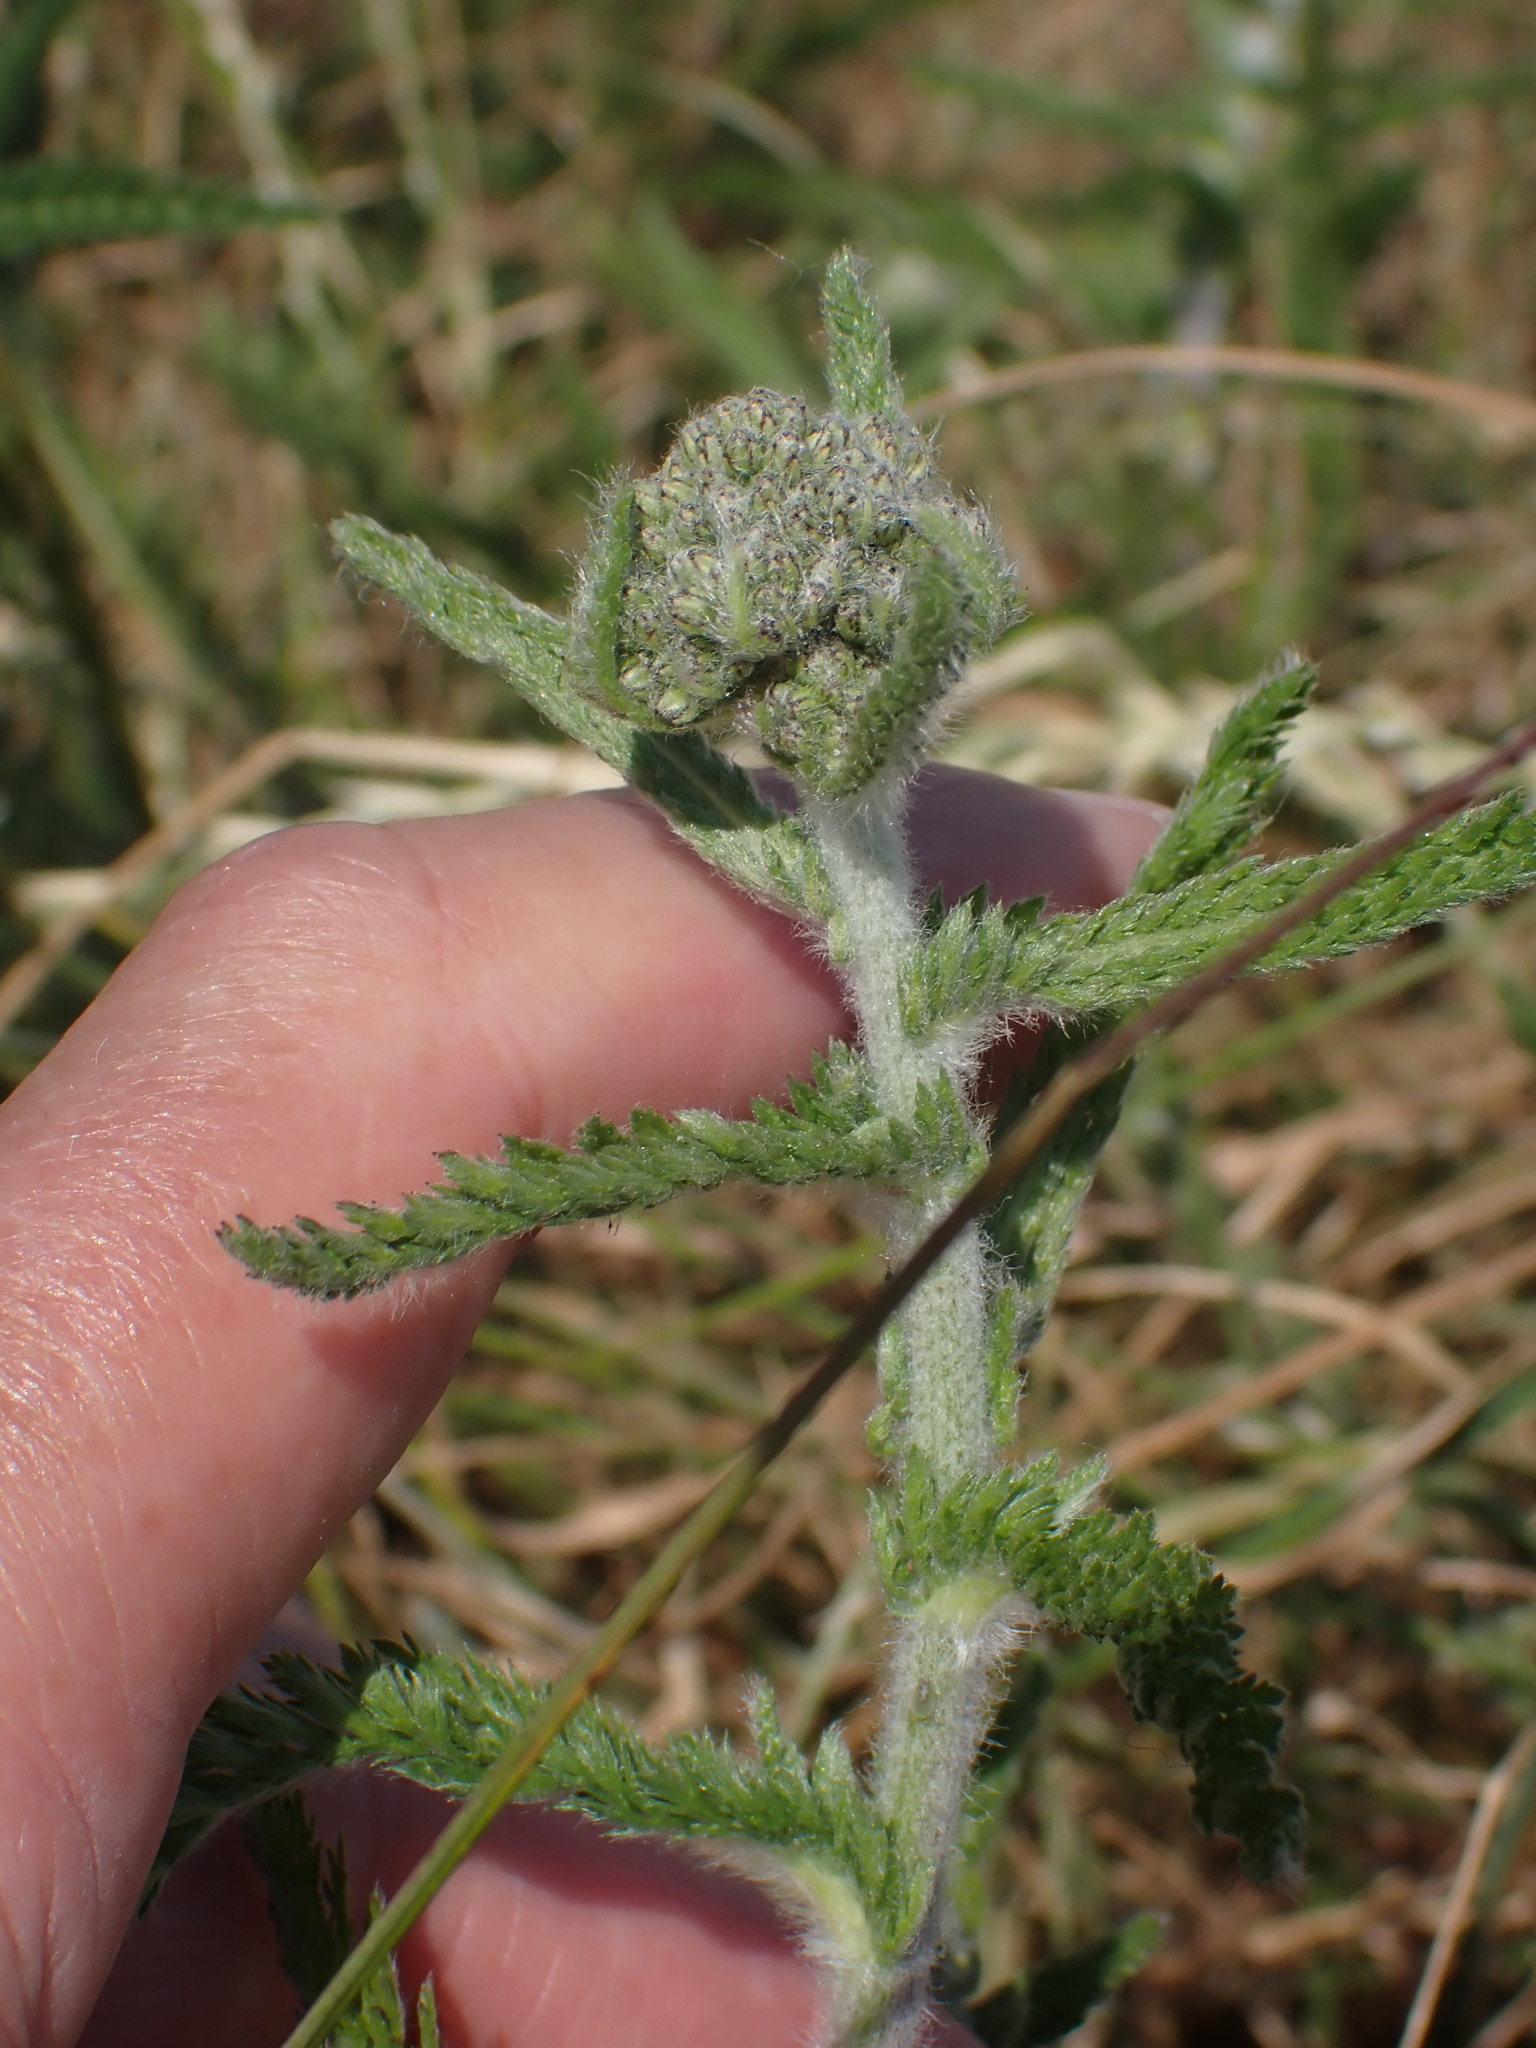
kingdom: Plantae
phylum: Tracheophyta
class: Magnoliopsida
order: Asterales
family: Asteraceae
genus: Achillea
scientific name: Achillea millefolium
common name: Yarrow
